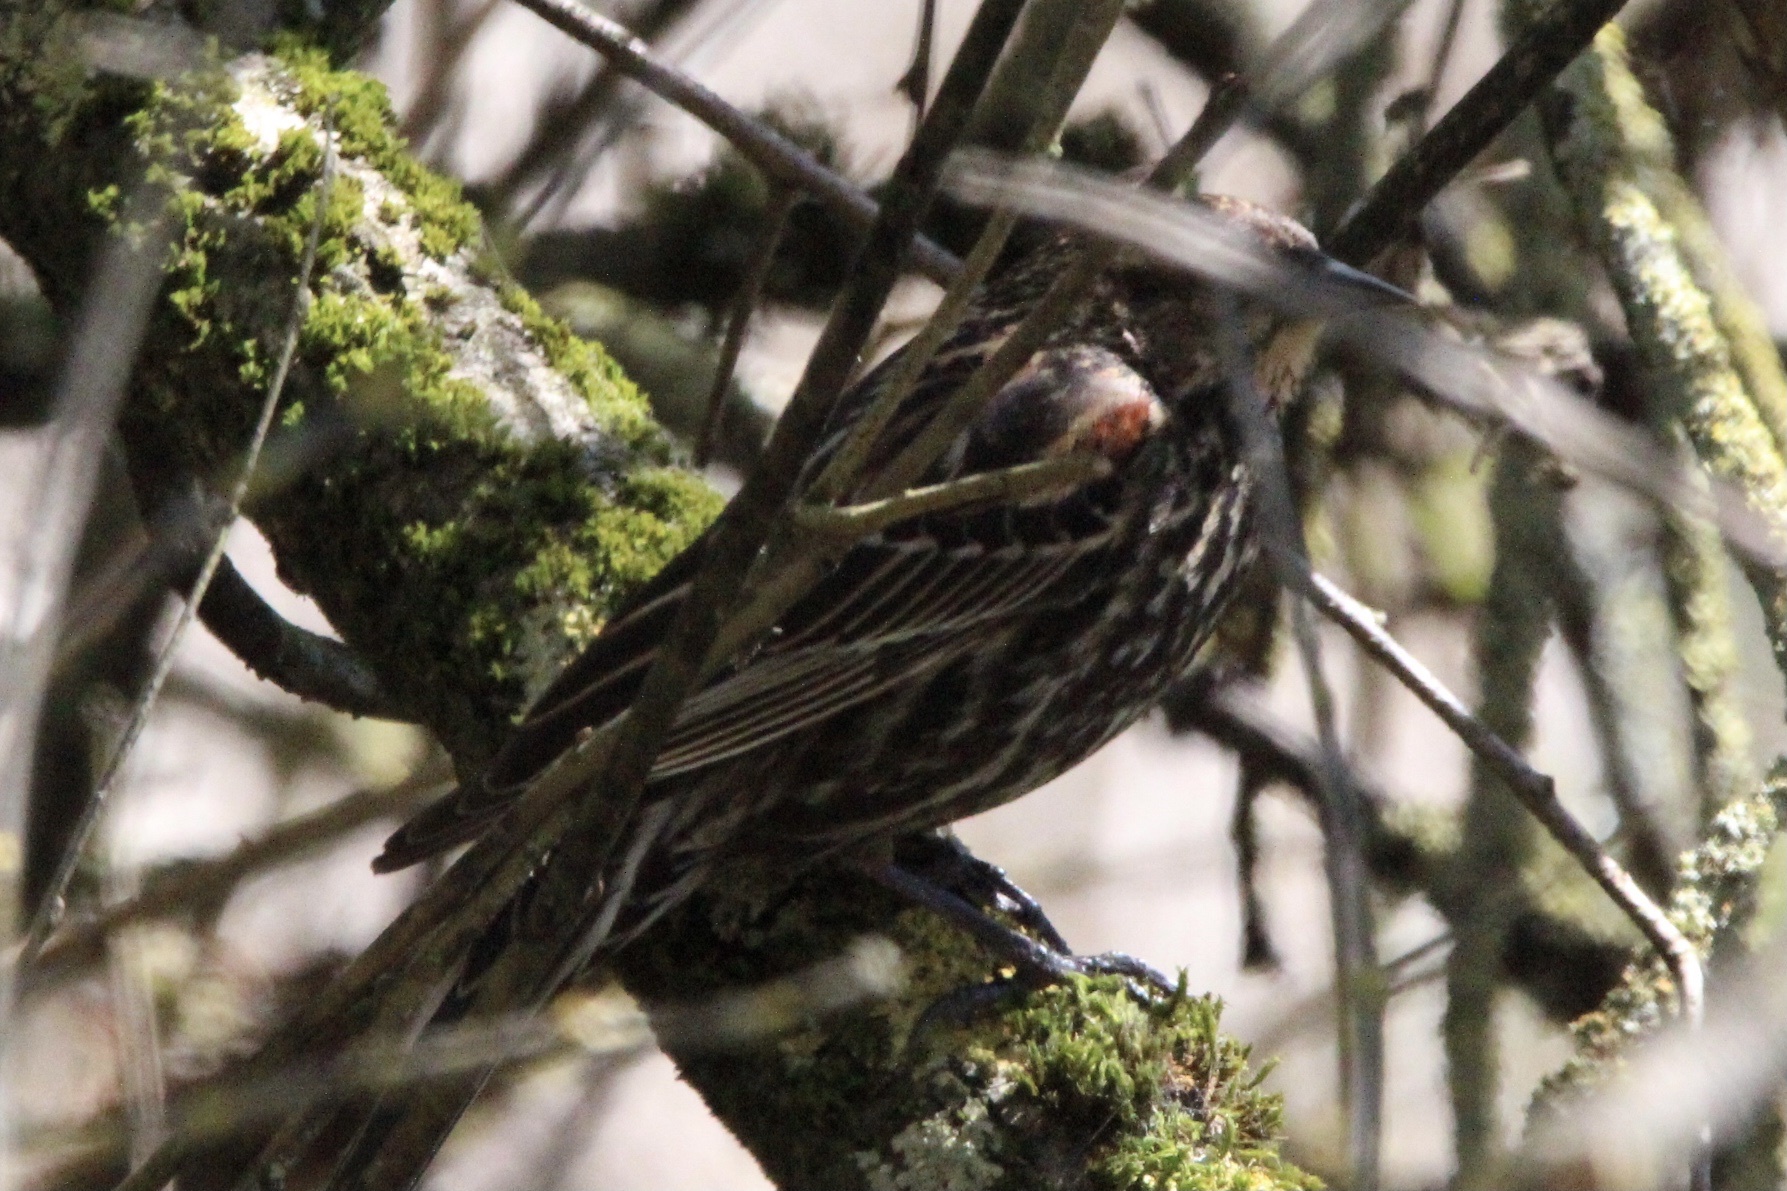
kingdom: Animalia
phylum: Chordata
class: Aves
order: Passeriformes
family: Icteridae
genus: Agelaius
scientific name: Agelaius phoeniceus
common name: Red-winged blackbird
